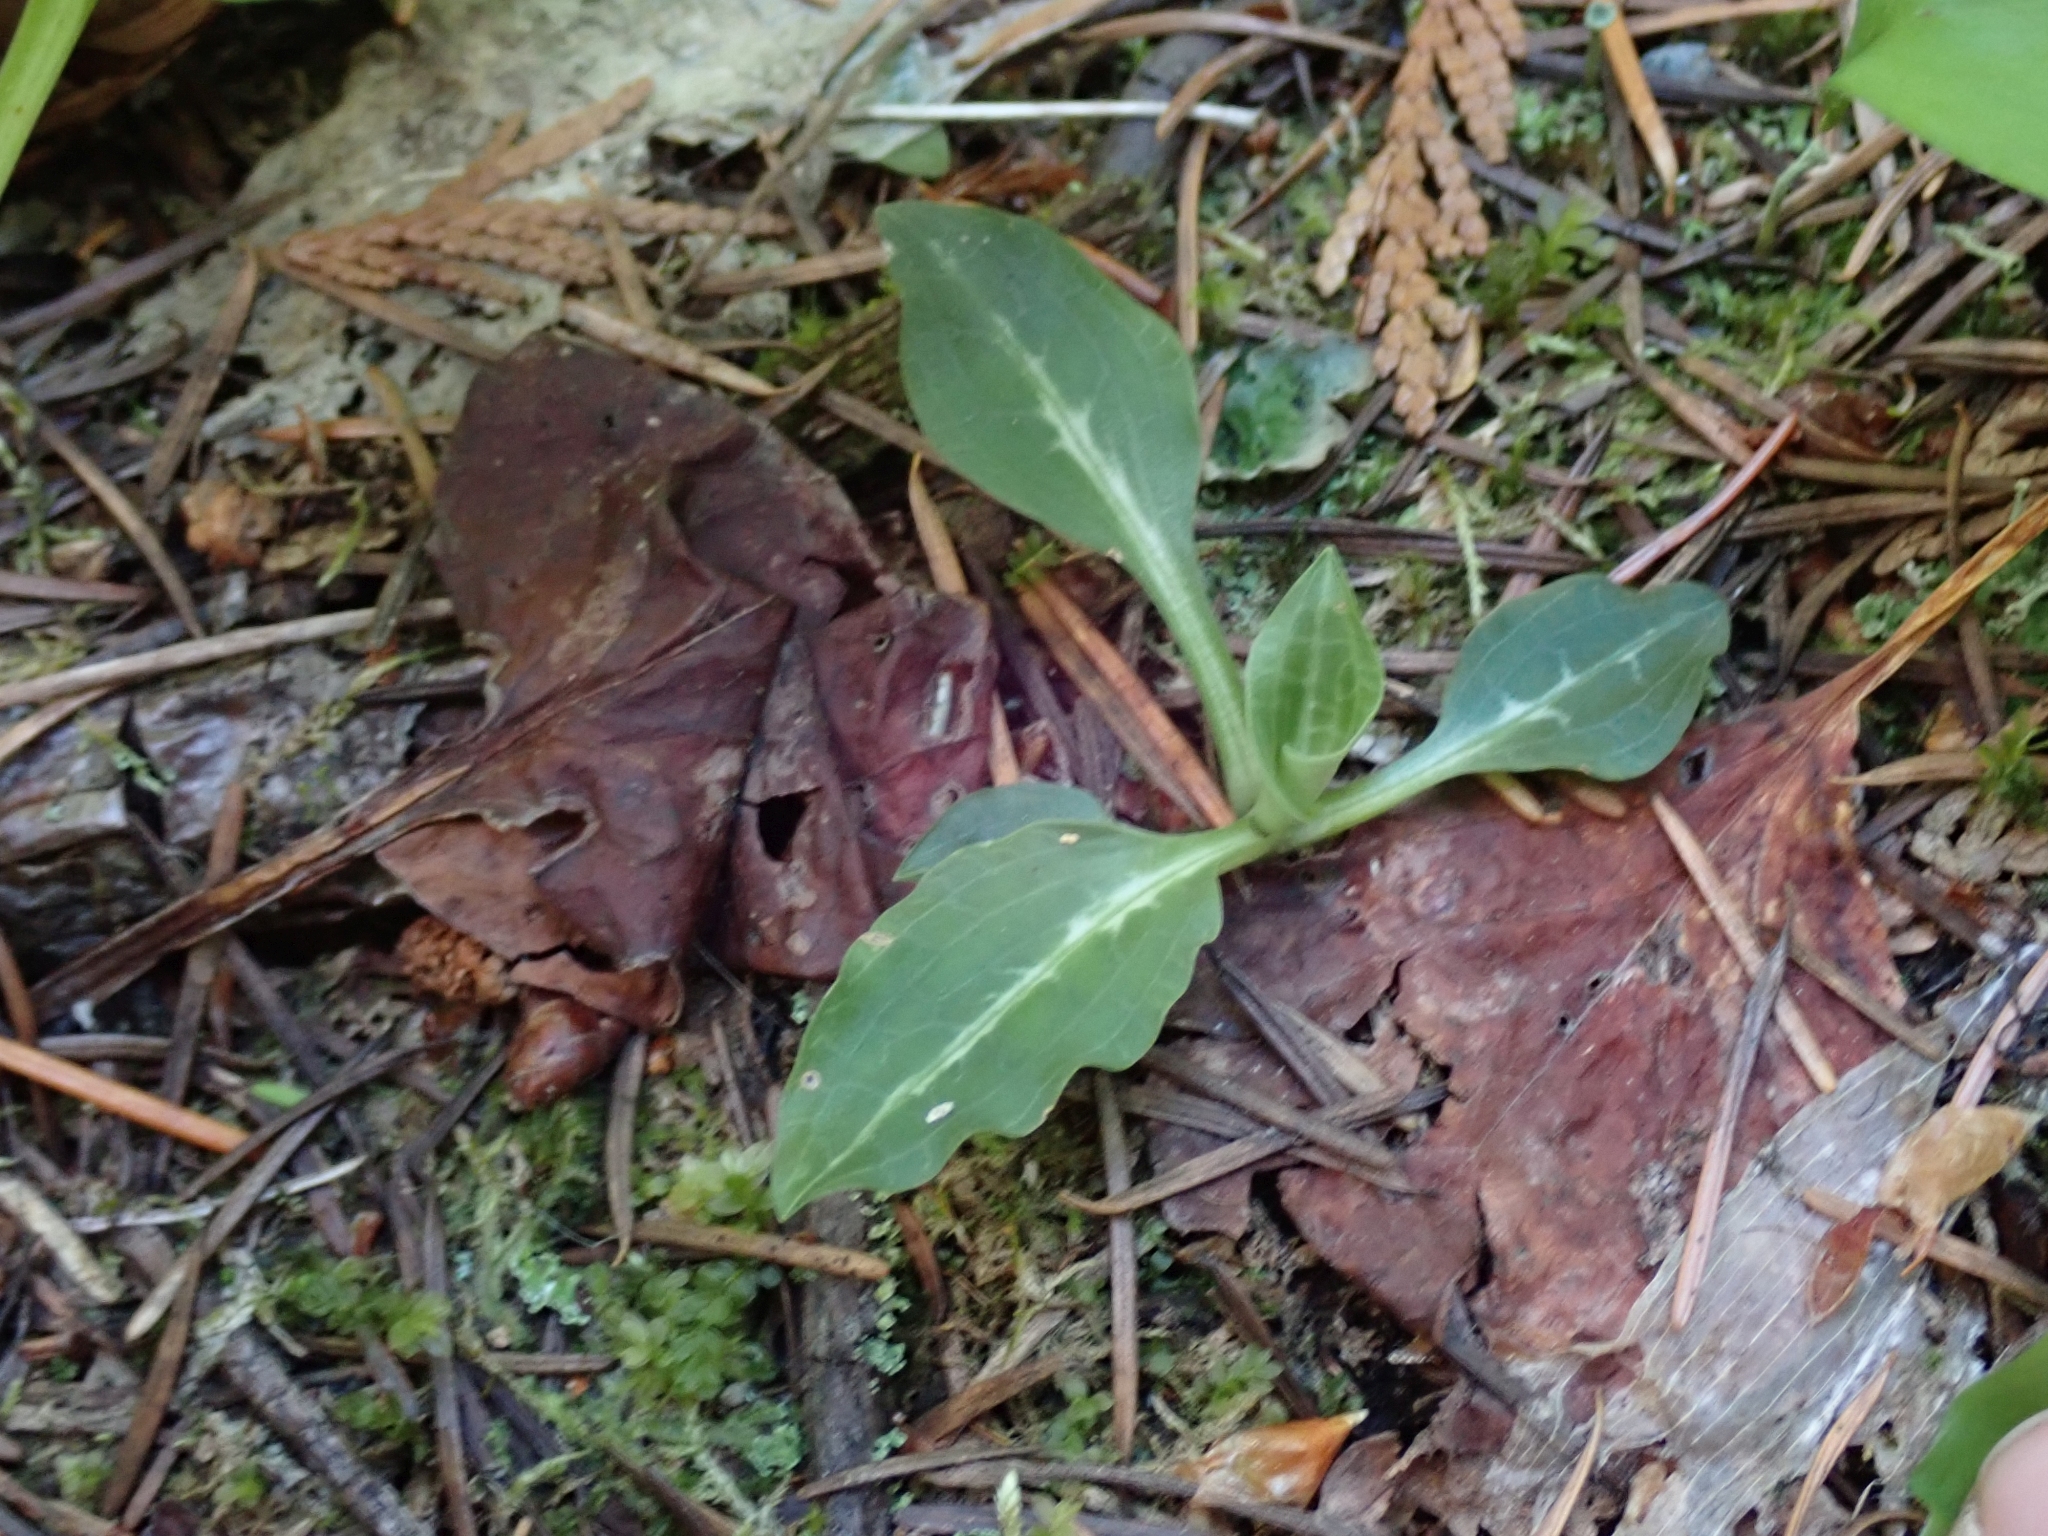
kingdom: Plantae
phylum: Tracheophyta
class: Liliopsida
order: Asparagales
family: Orchidaceae
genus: Goodyera
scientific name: Goodyera oblongifolia
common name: Giant rattlesnake-plantain
